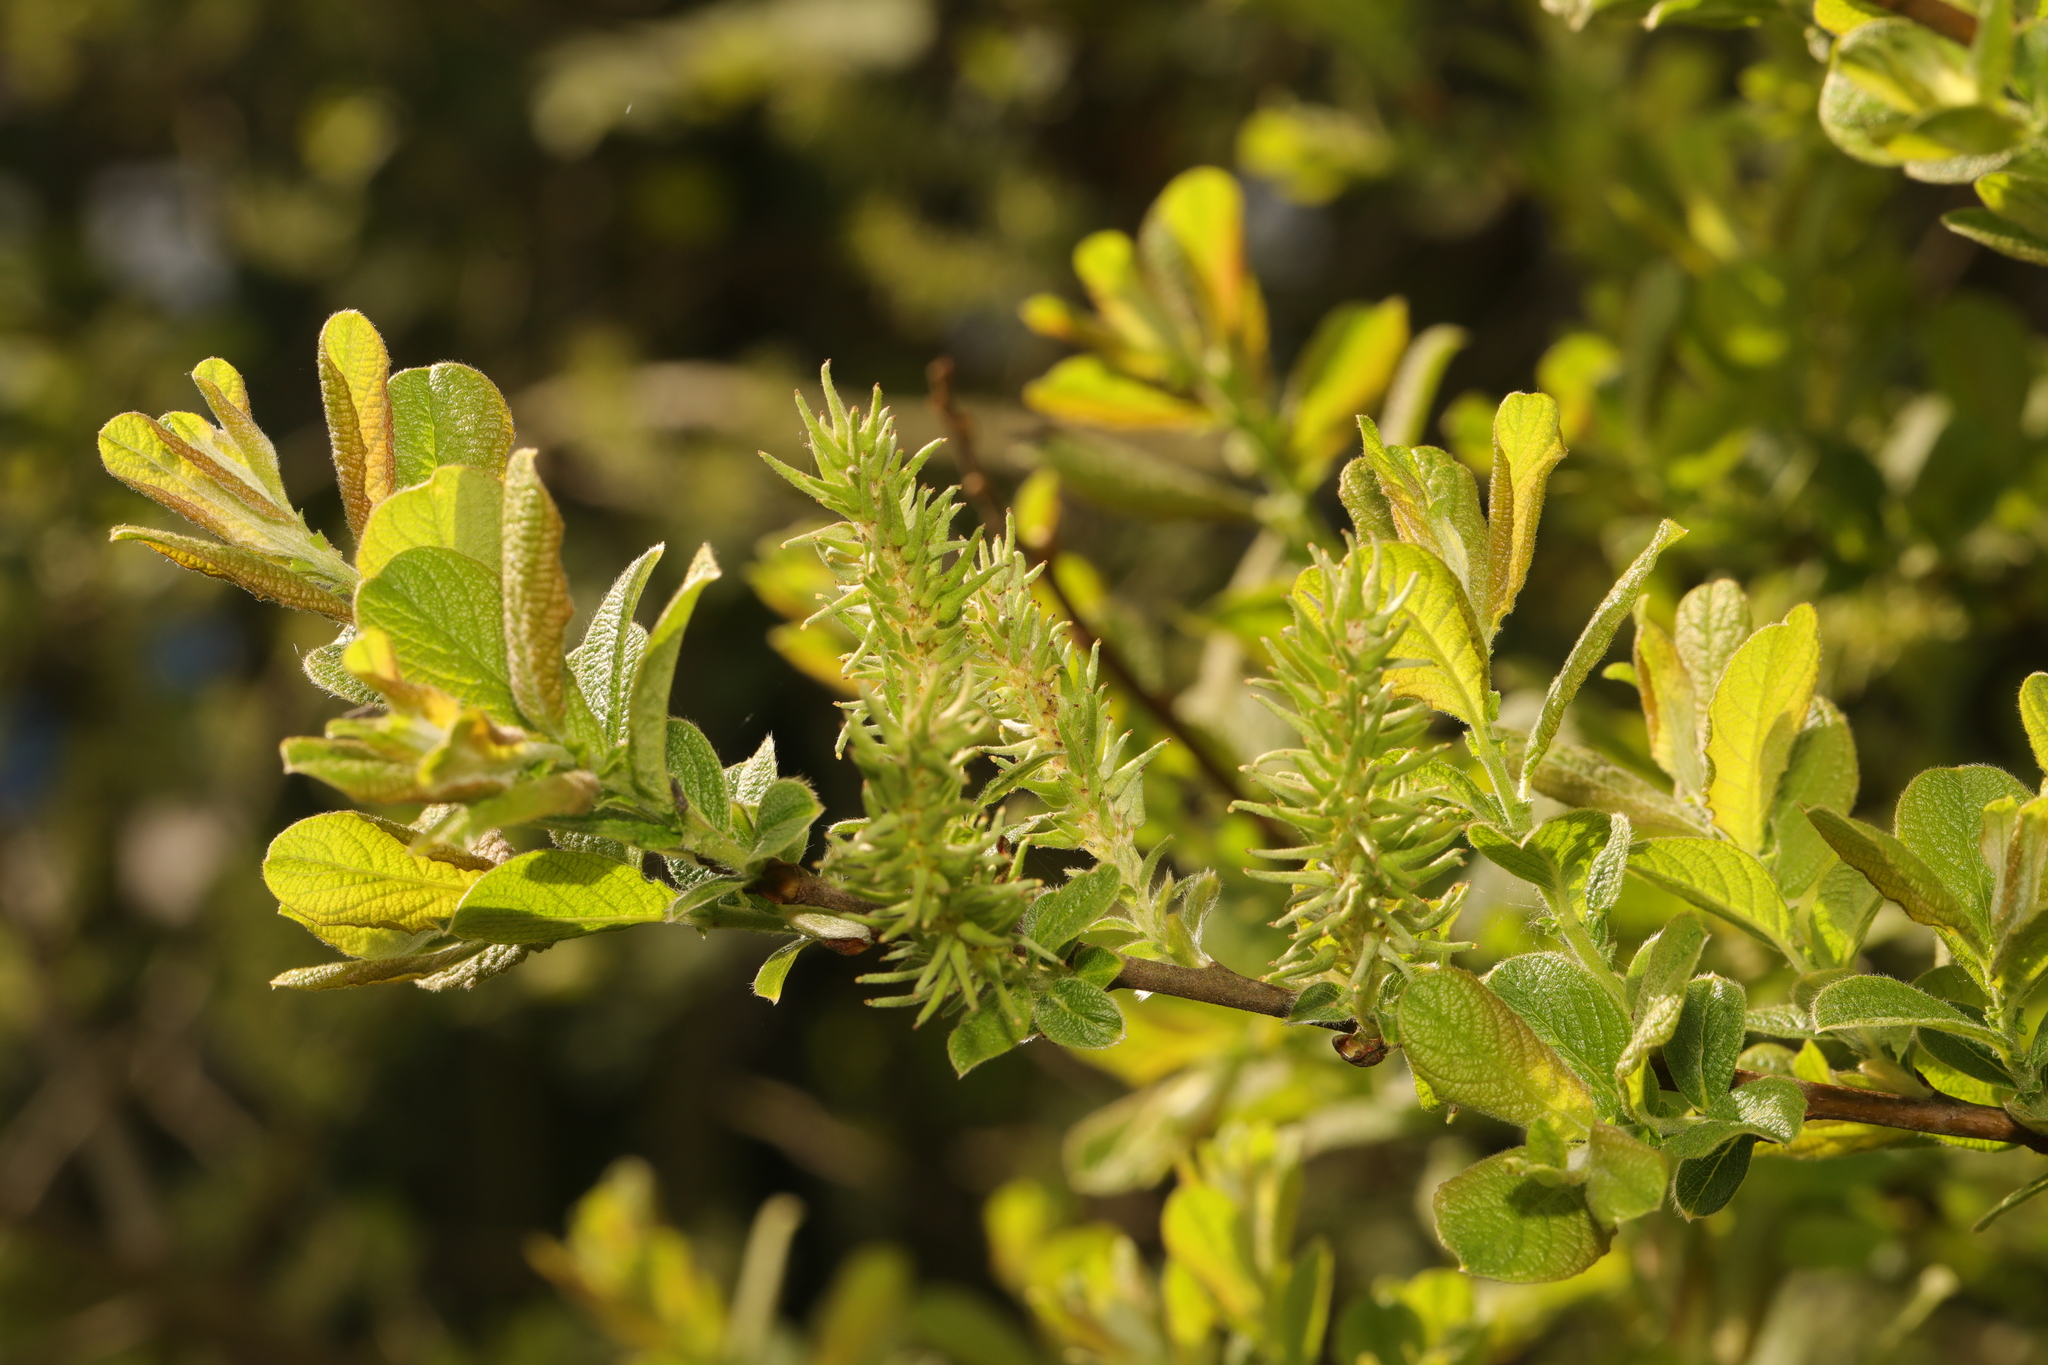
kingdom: Plantae
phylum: Tracheophyta
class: Magnoliopsida
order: Malpighiales
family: Salicaceae
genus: Salix
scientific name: Salix cinerea
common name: Common sallow
